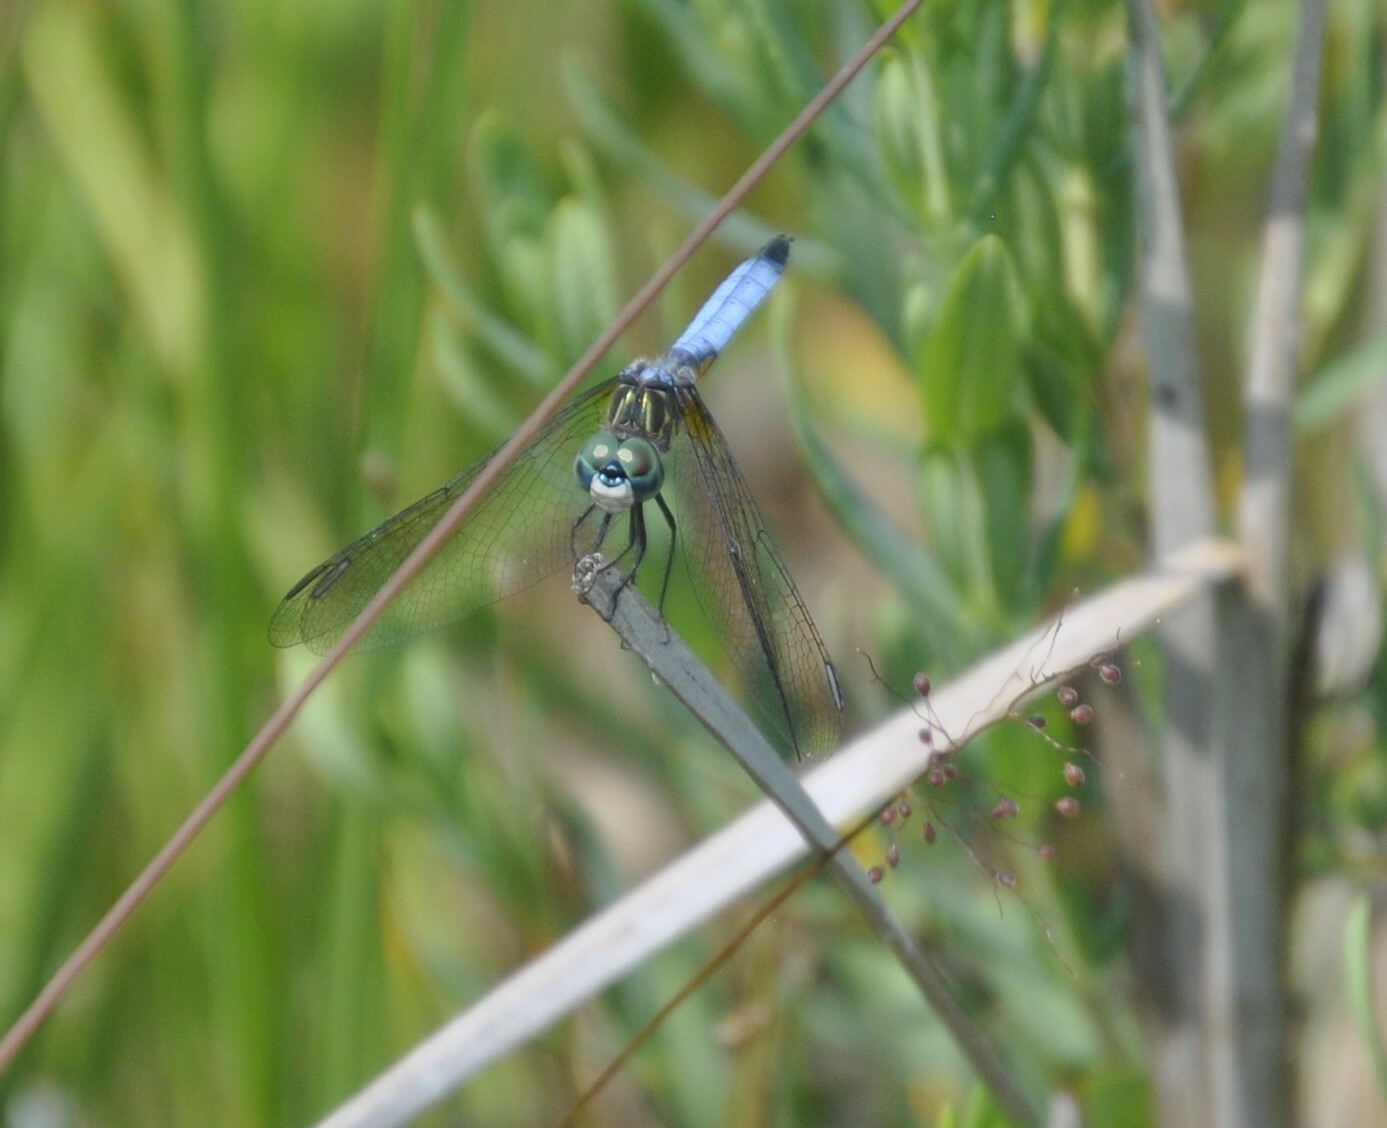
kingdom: Animalia
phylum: Arthropoda
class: Insecta
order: Odonata
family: Libellulidae
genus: Pachydiplax
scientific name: Pachydiplax longipennis
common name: Blue dasher
